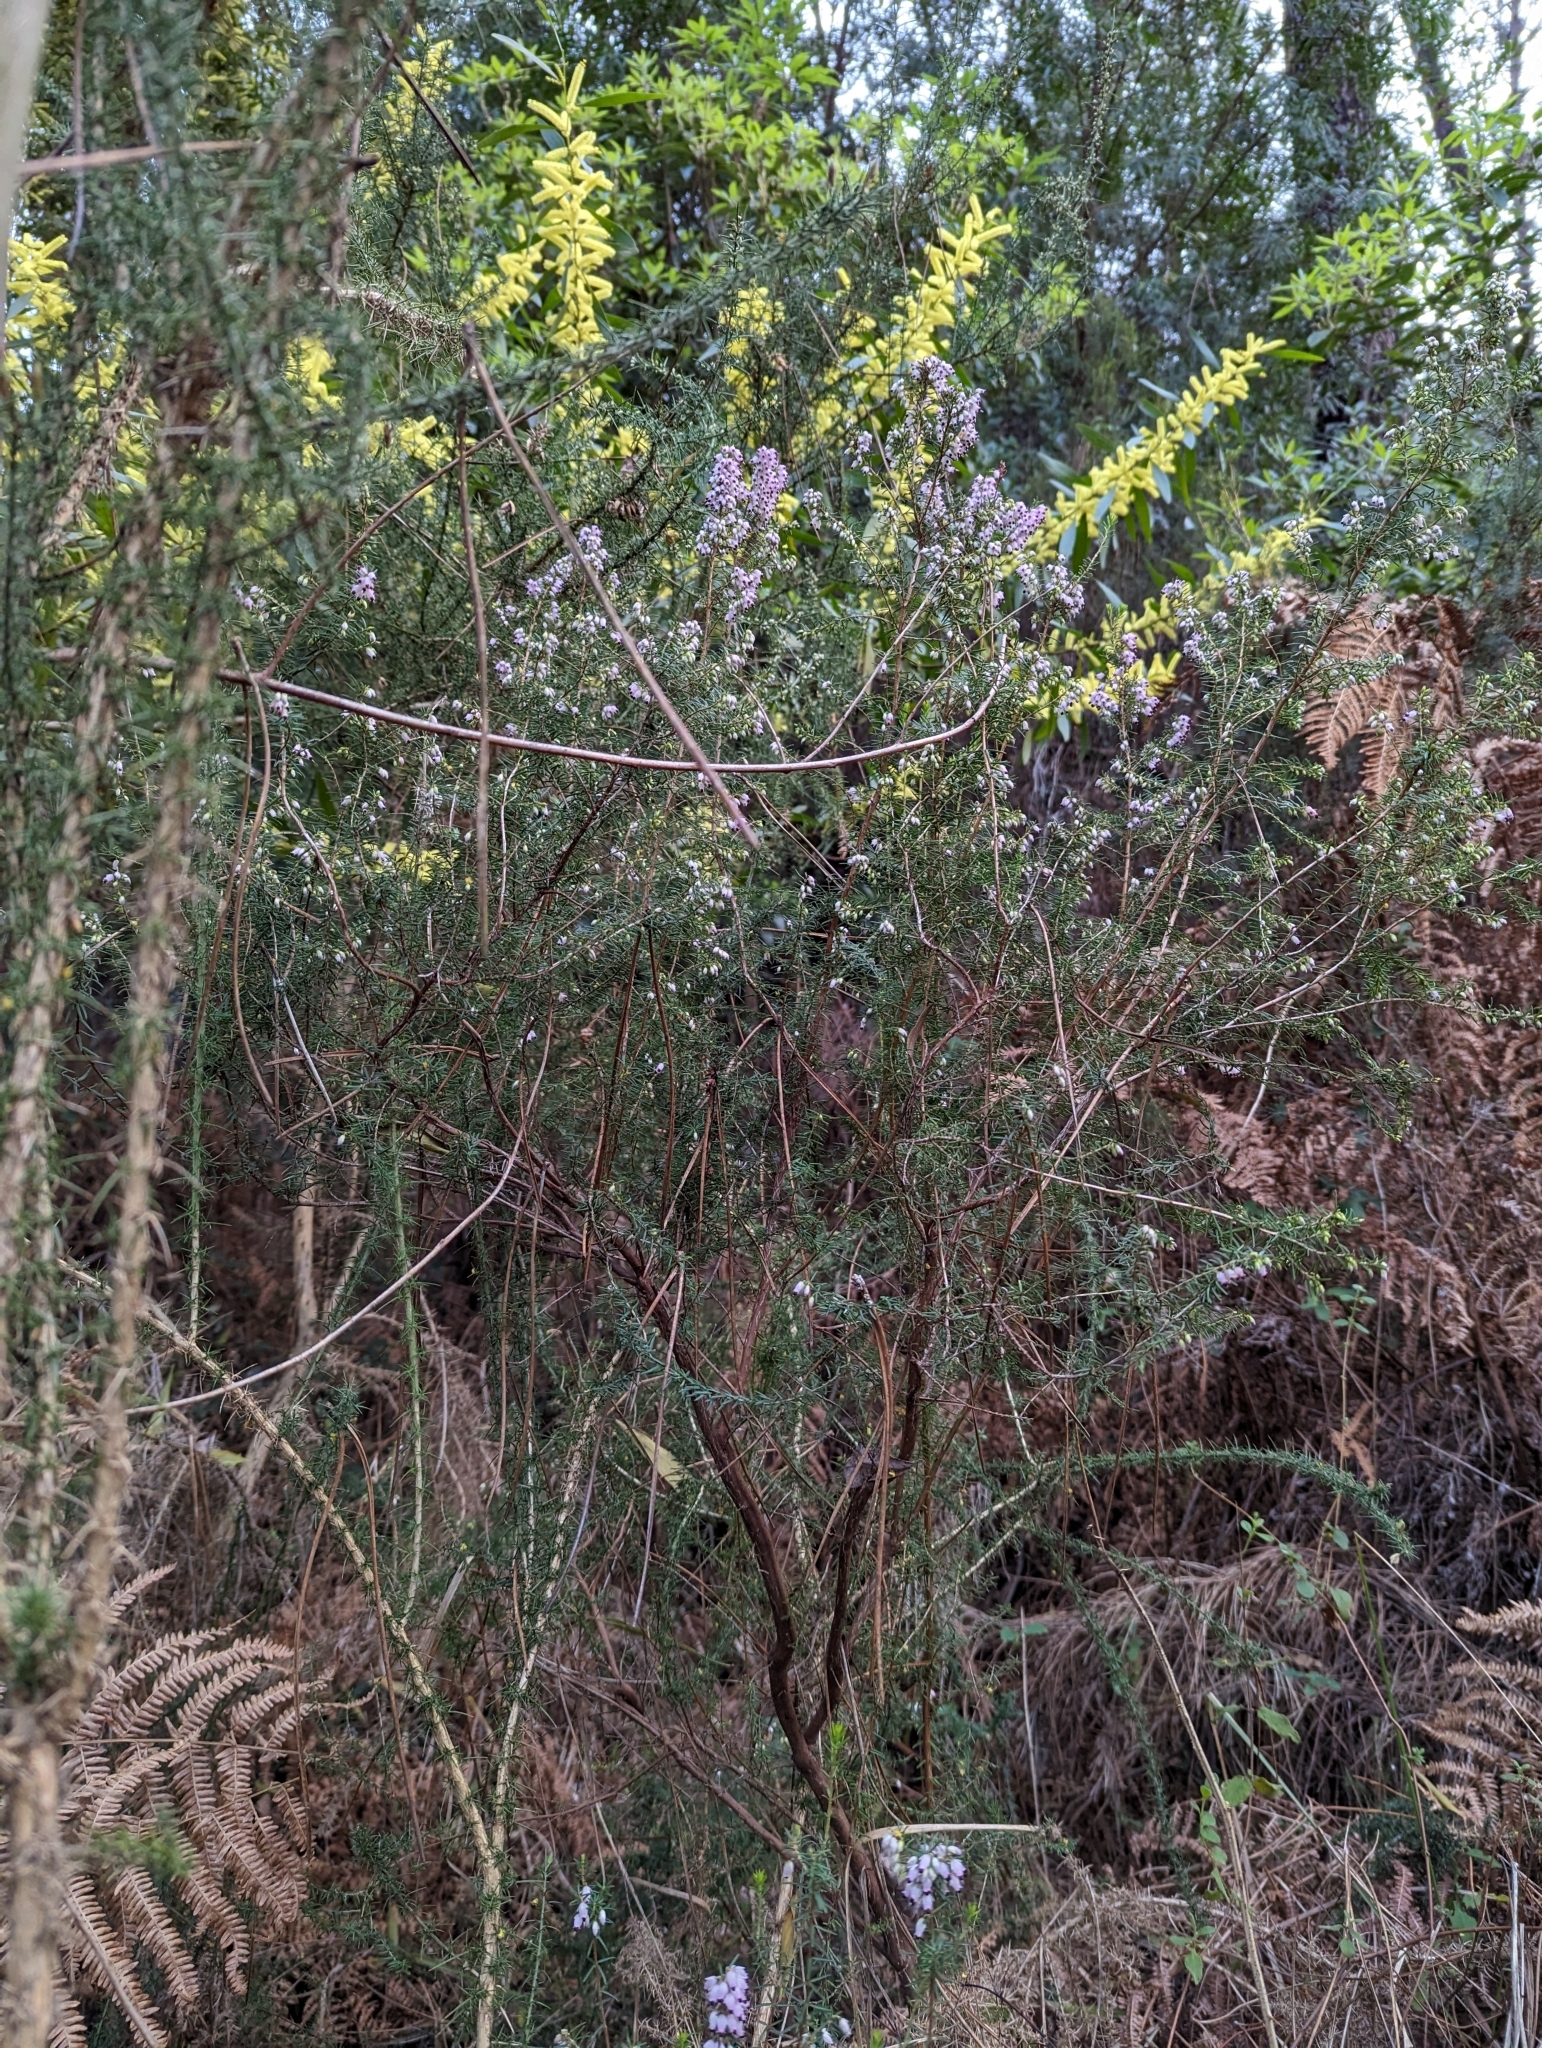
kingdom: Plantae
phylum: Tracheophyta
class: Magnoliopsida
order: Ericales
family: Ericaceae
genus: Erica
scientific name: Erica erigena
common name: Irish heath
